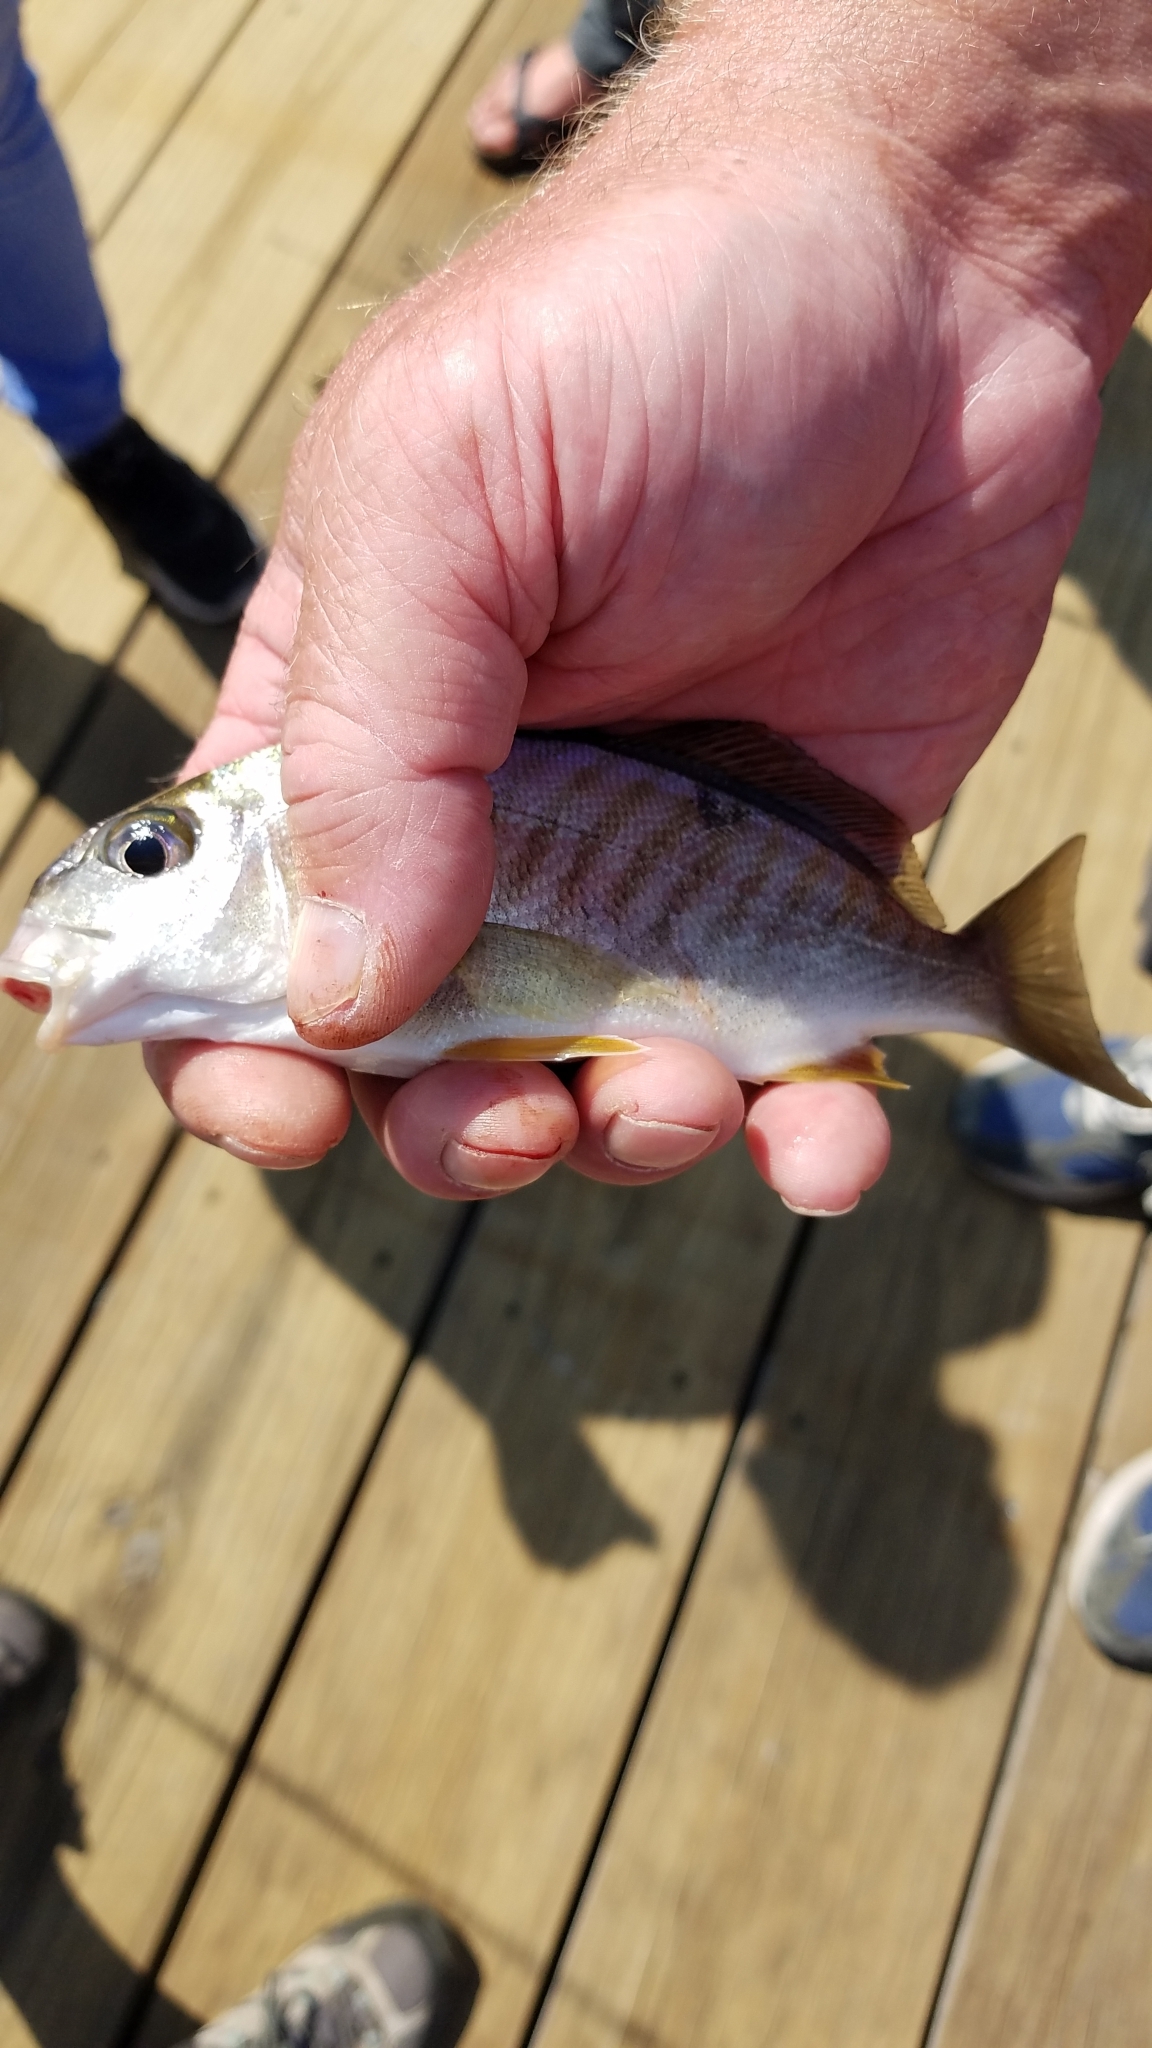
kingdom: Animalia
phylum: Chordata
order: Perciformes
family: Sciaenidae
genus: Leiostomus
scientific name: Leiostomus xanthurus
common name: Spot
